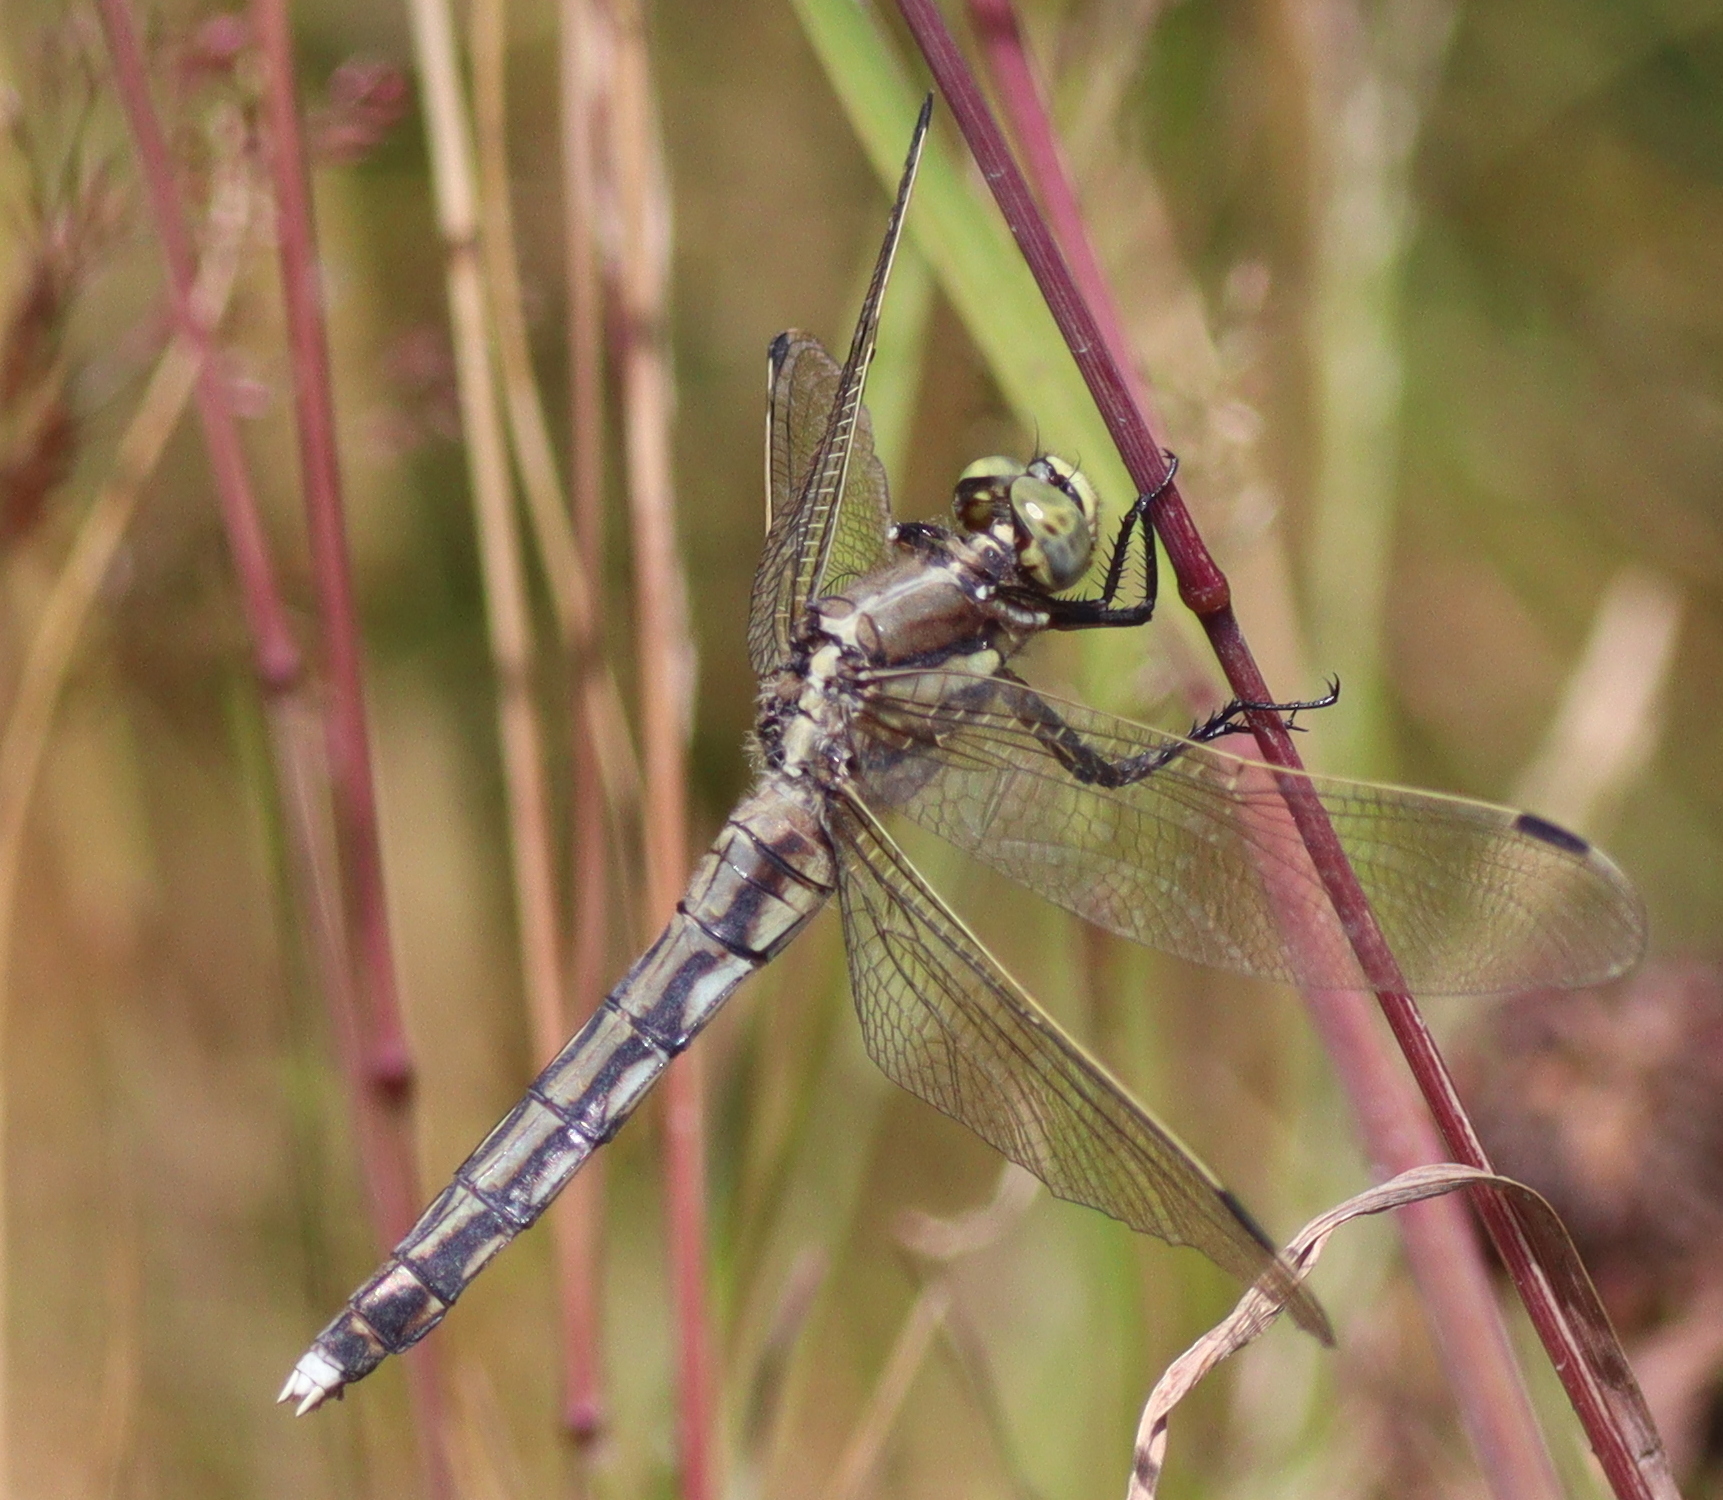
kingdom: Animalia
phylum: Arthropoda
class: Insecta
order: Odonata
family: Libellulidae
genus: Orthetrum
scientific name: Orthetrum albistylum
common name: White-tailed skimmer
